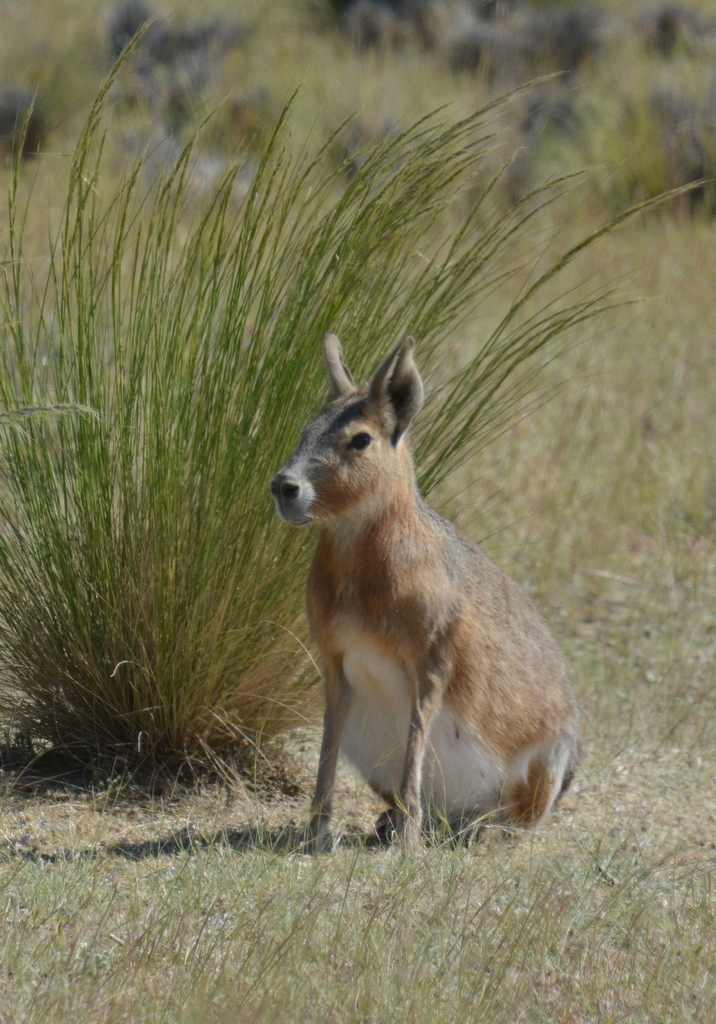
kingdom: Animalia
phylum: Chordata
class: Mammalia
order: Rodentia
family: Caviidae
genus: Dolichotis
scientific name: Dolichotis patagonum
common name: Patagonian mara
